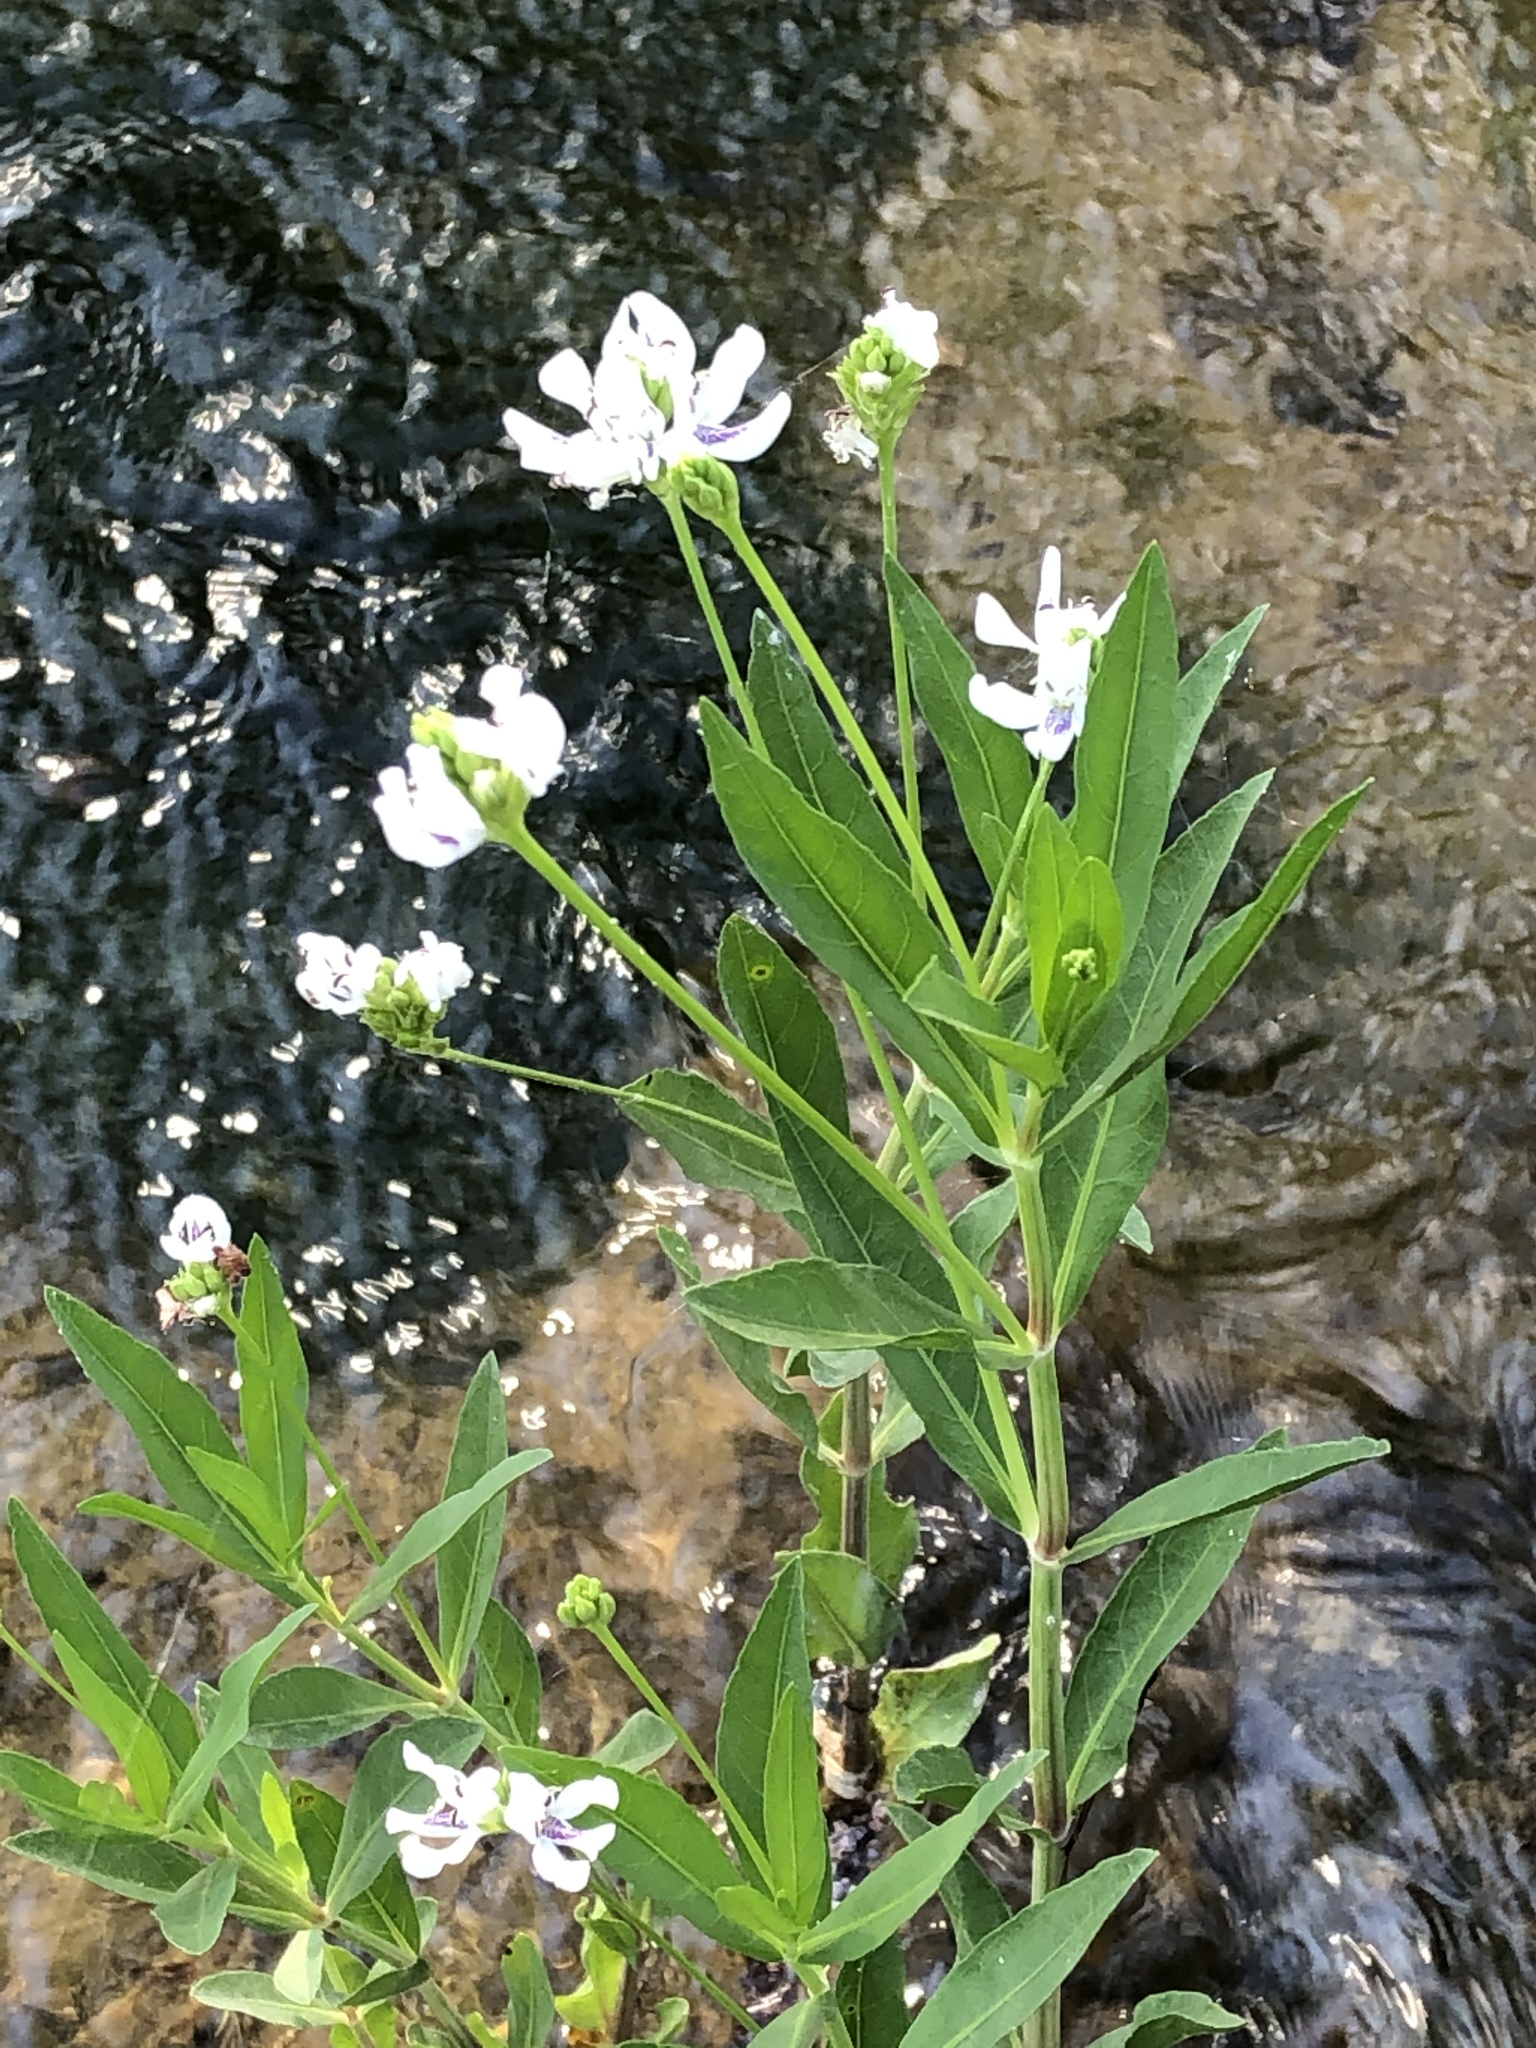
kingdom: Plantae
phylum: Tracheophyta
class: Magnoliopsida
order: Lamiales
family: Acanthaceae
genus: Dianthera
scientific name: Dianthera americana
